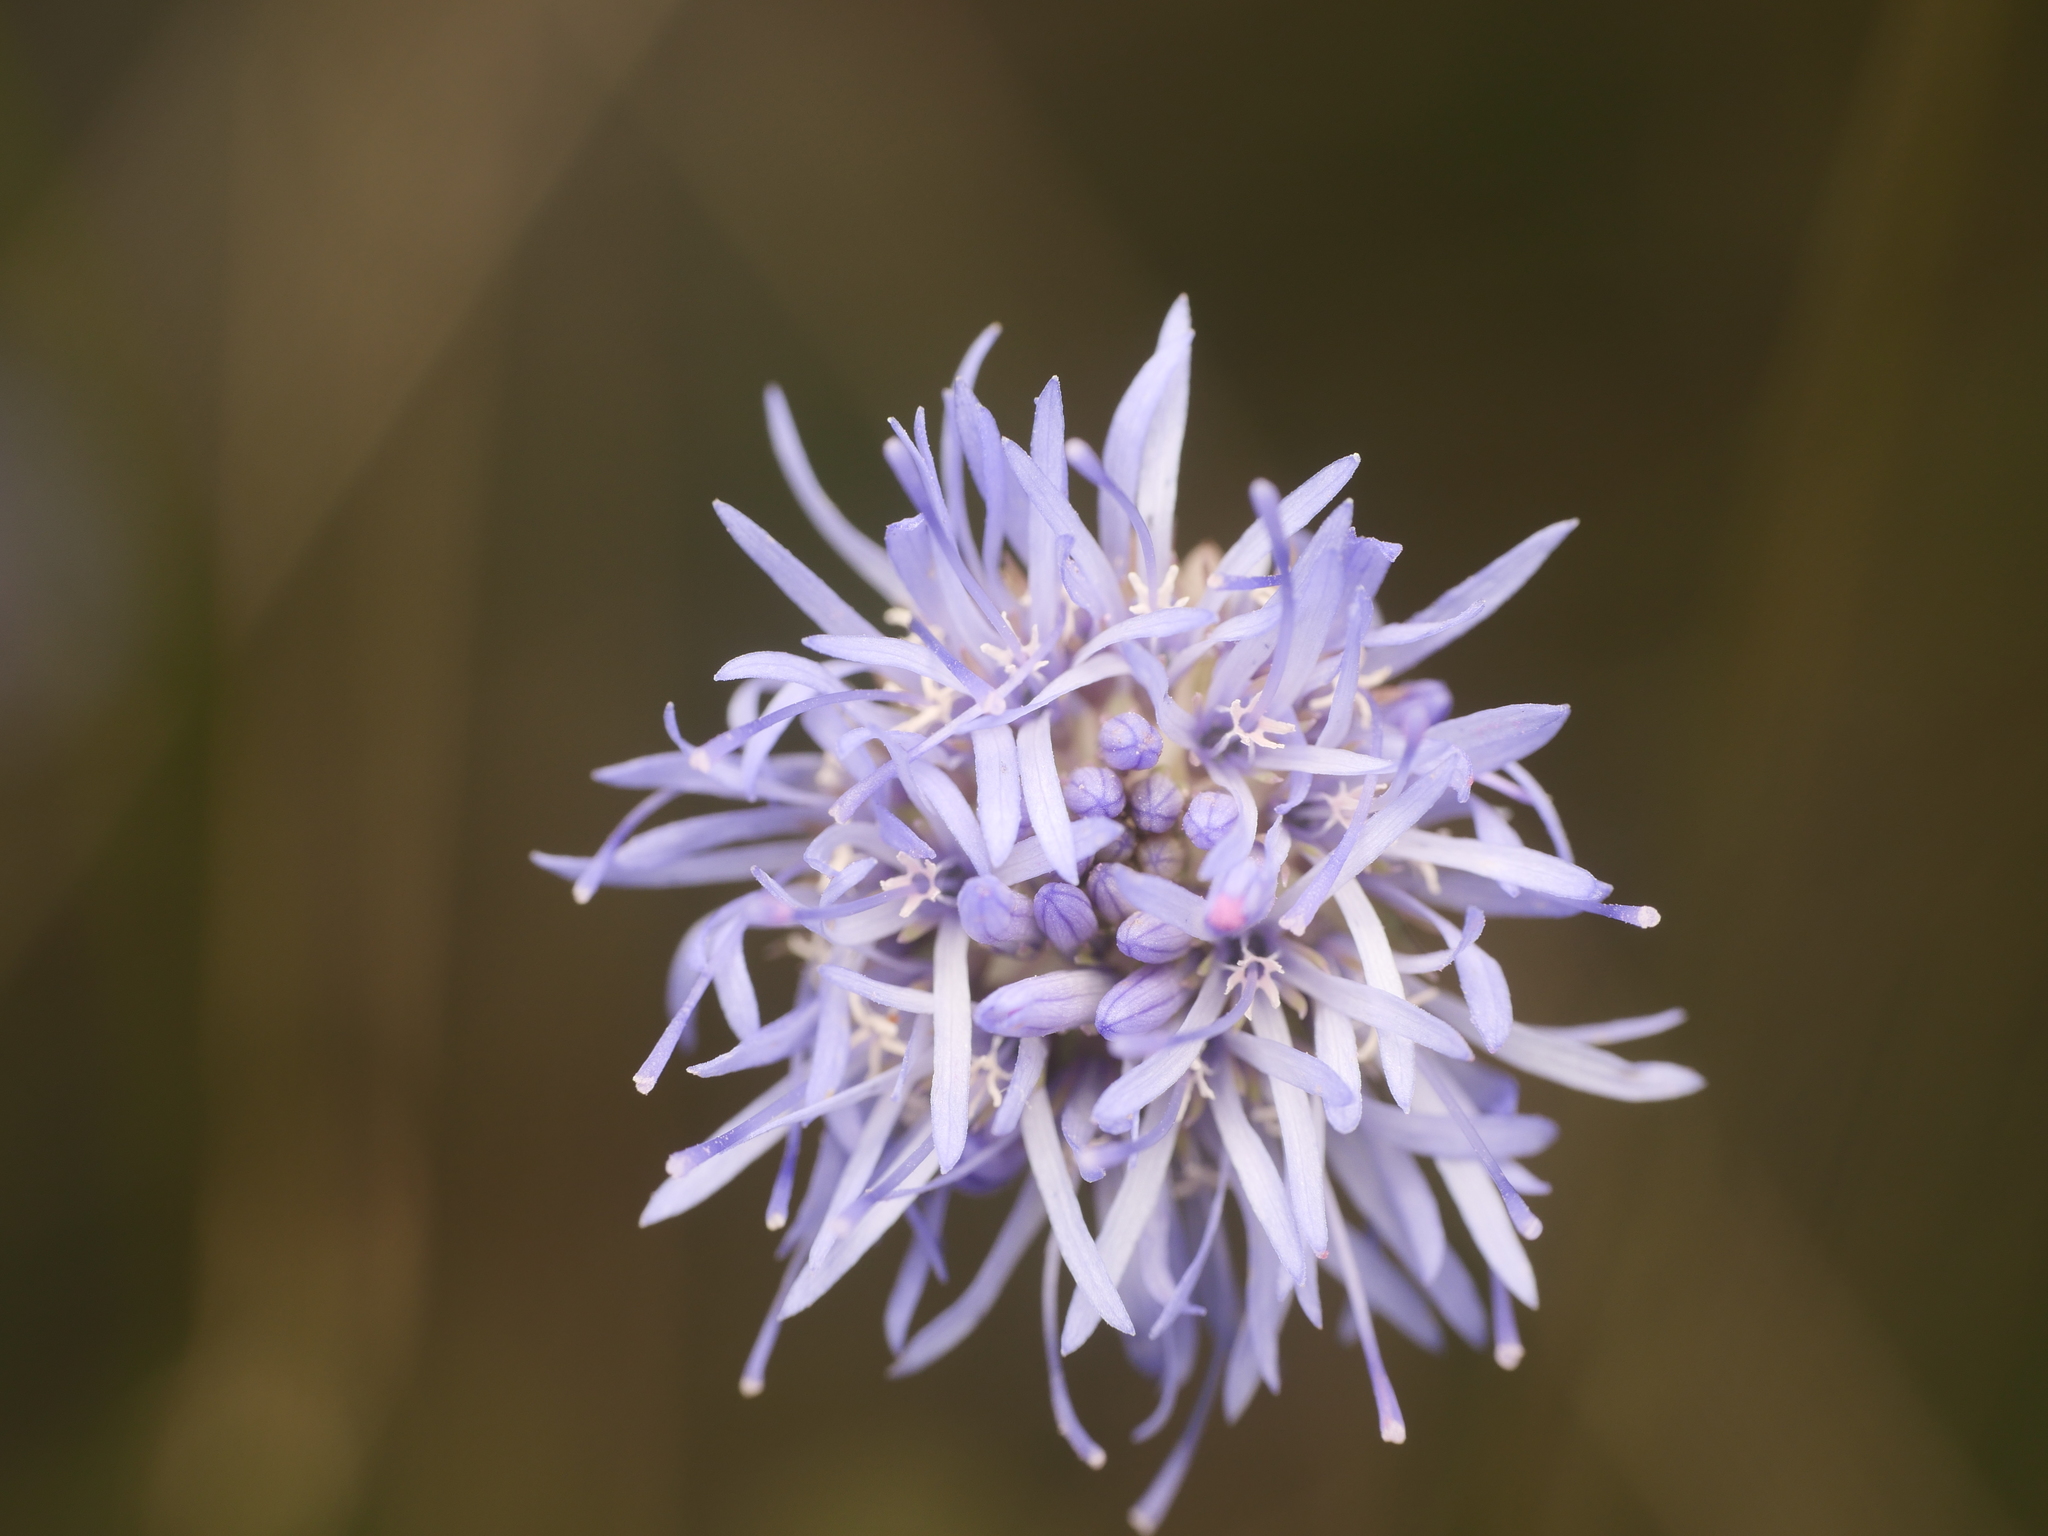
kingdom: Plantae
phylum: Tracheophyta
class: Magnoliopsida
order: Asterales
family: Campanulaceae
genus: Jasione
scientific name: Jasione montana
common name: Sheep's-bit
